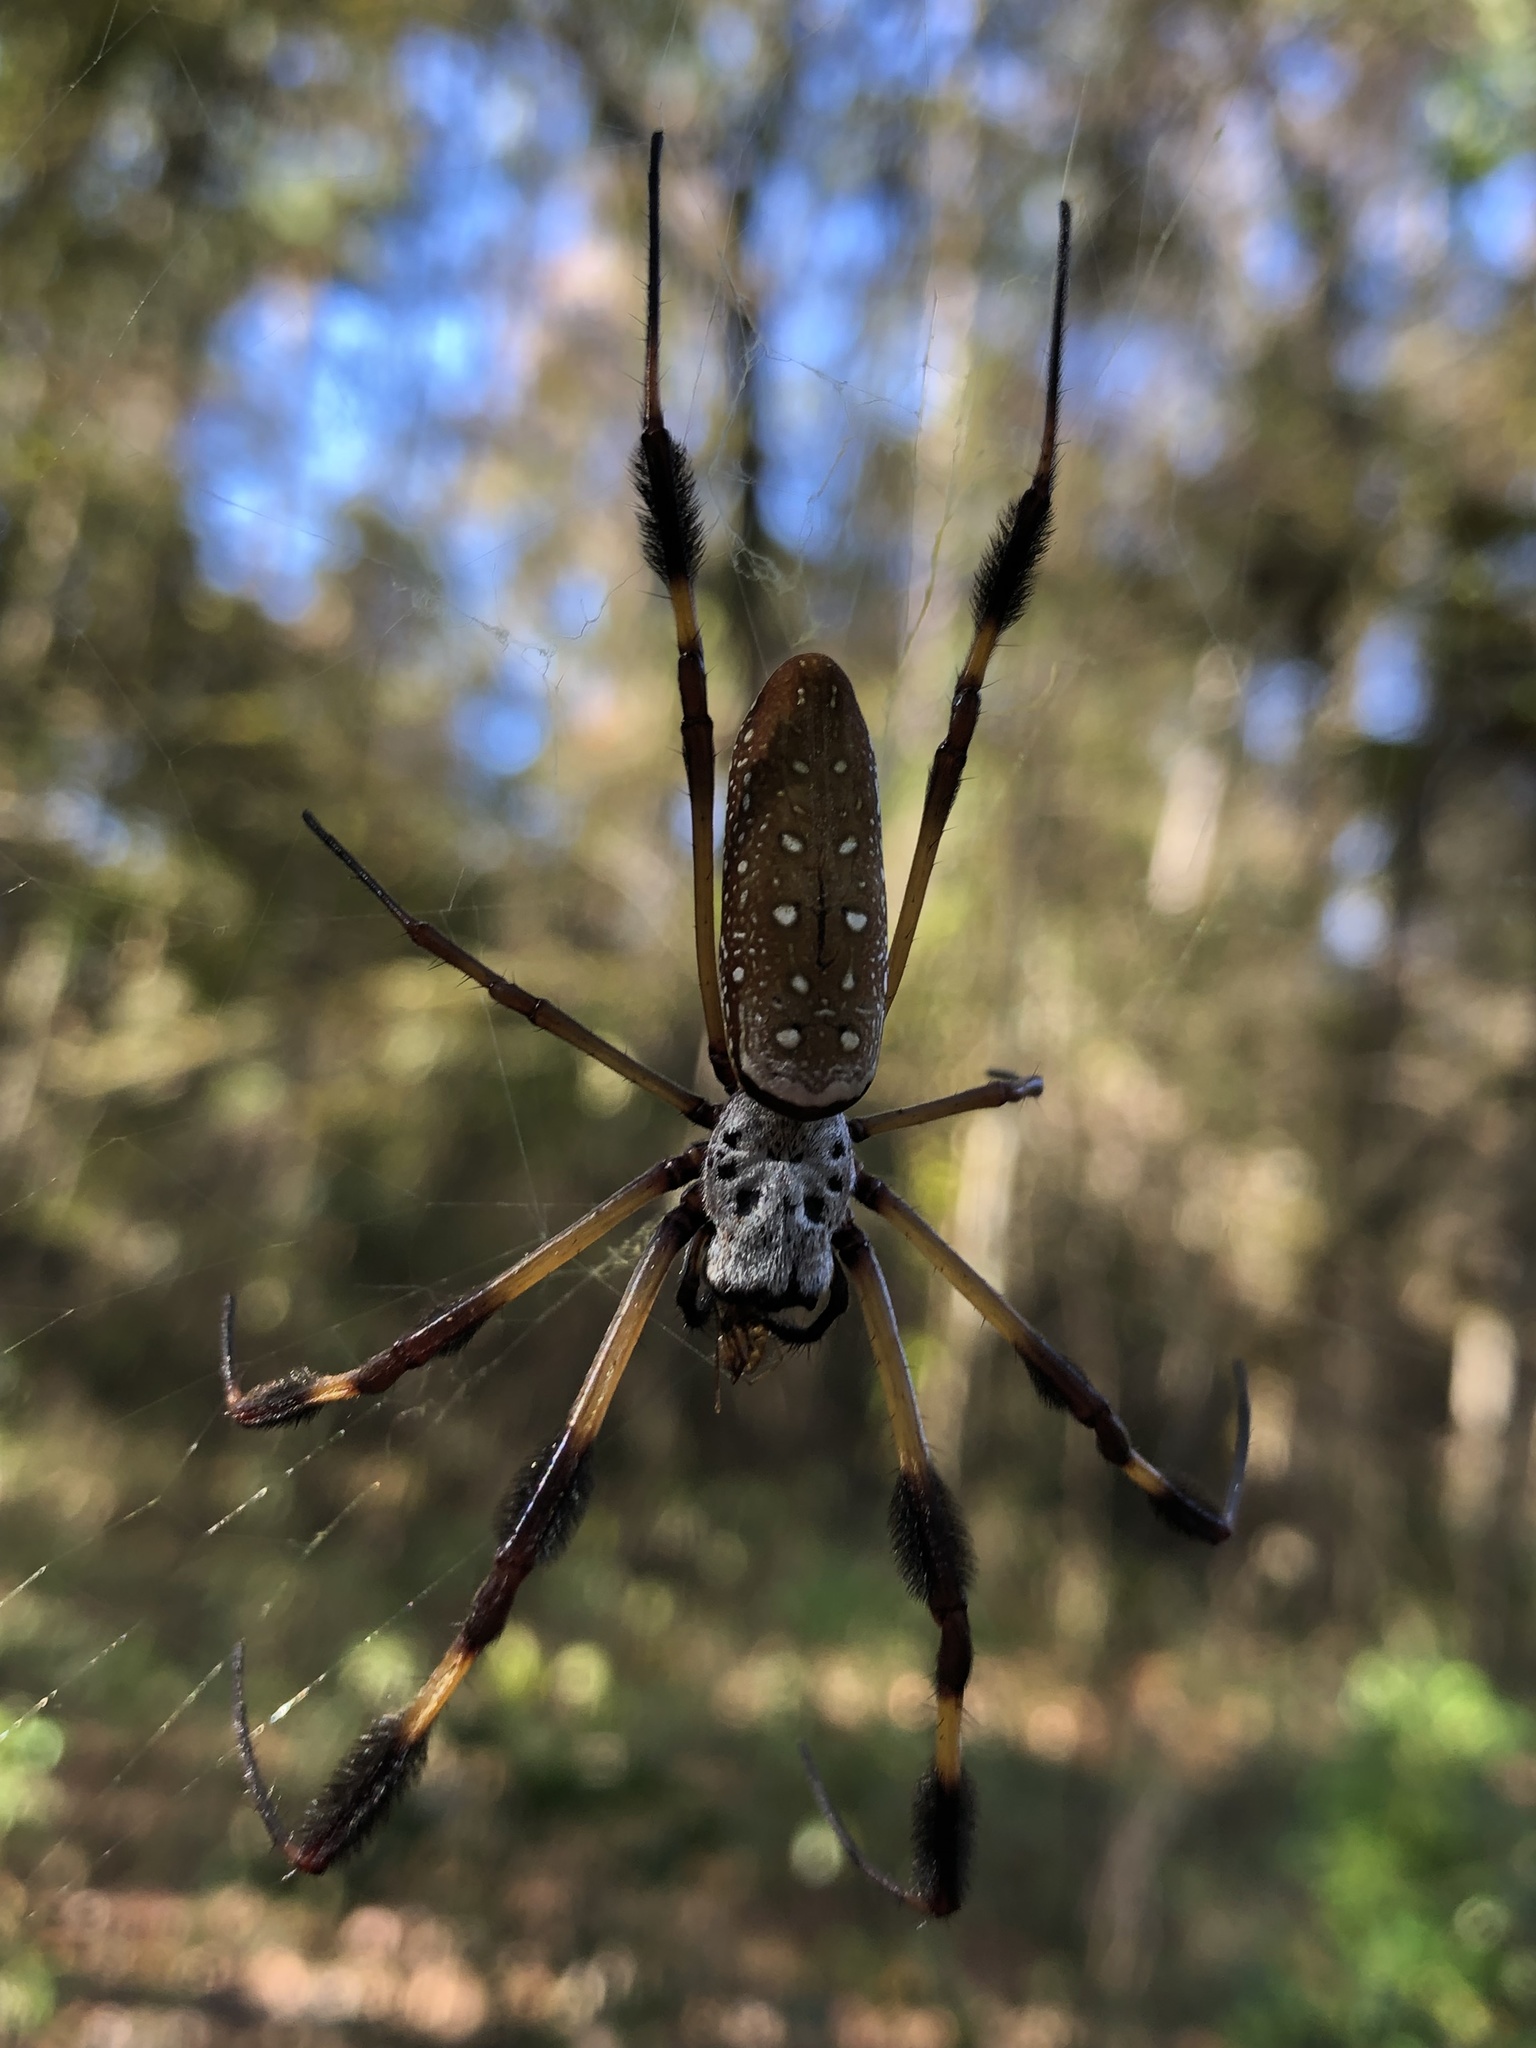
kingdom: Animalia
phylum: Arthropoda
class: Arachnida
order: Araneae
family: Araneidae
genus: Trichonephila
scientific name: Trichonephila clavipes
